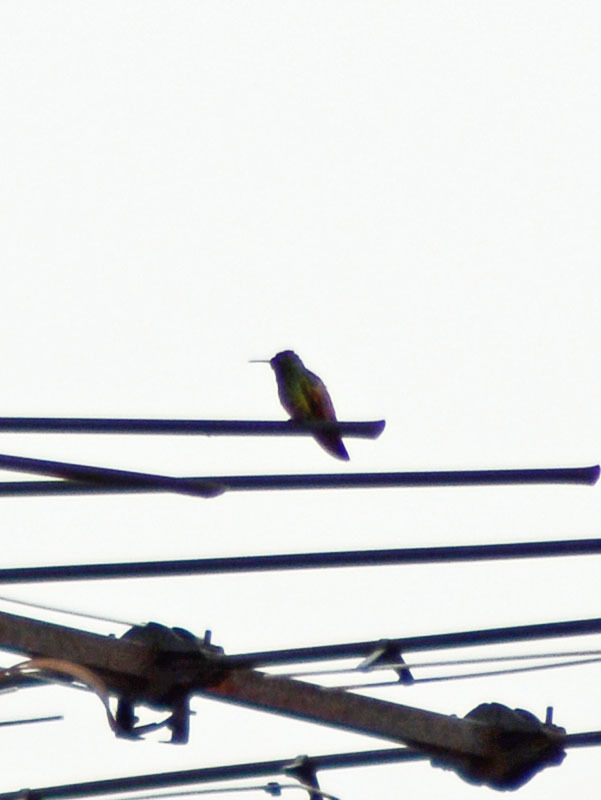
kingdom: Animalia
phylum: Chordata
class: Aves
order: Apodiformes
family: Trochilidae
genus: Saucerottia
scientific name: Saucerottia beryllina
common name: Berylline hummingbird
